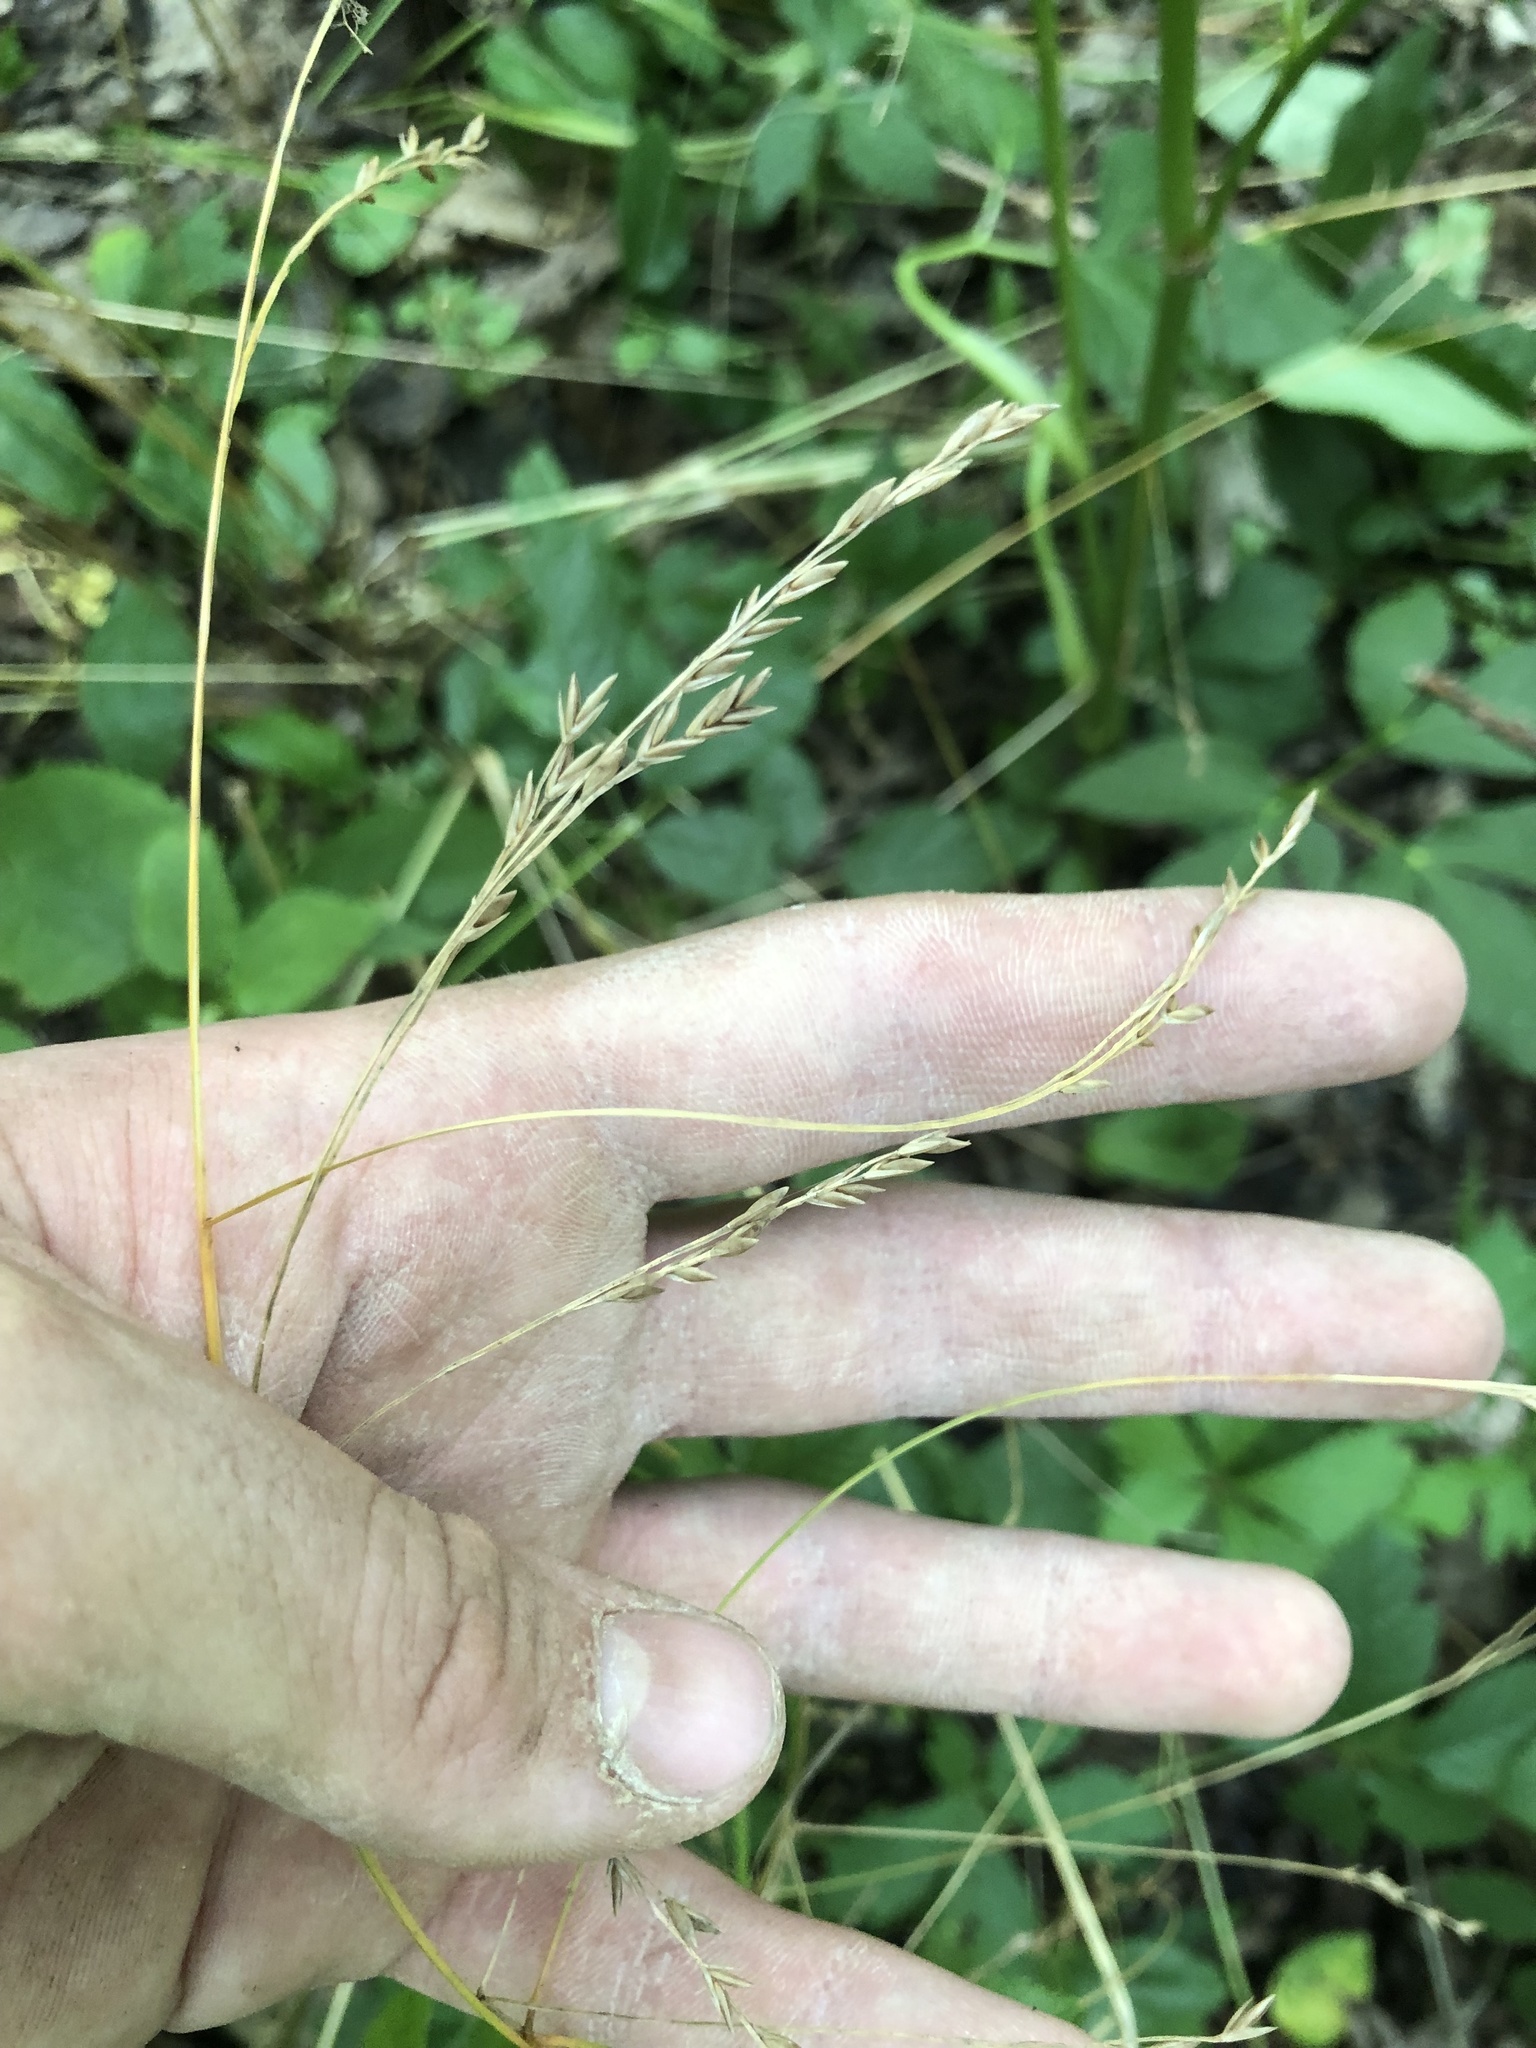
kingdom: Plantae
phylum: Tracheophyta
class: Liliopsida
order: Poales
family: Poaceae
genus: Festuca
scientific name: Festuca subverticillata
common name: Nodding fescue
